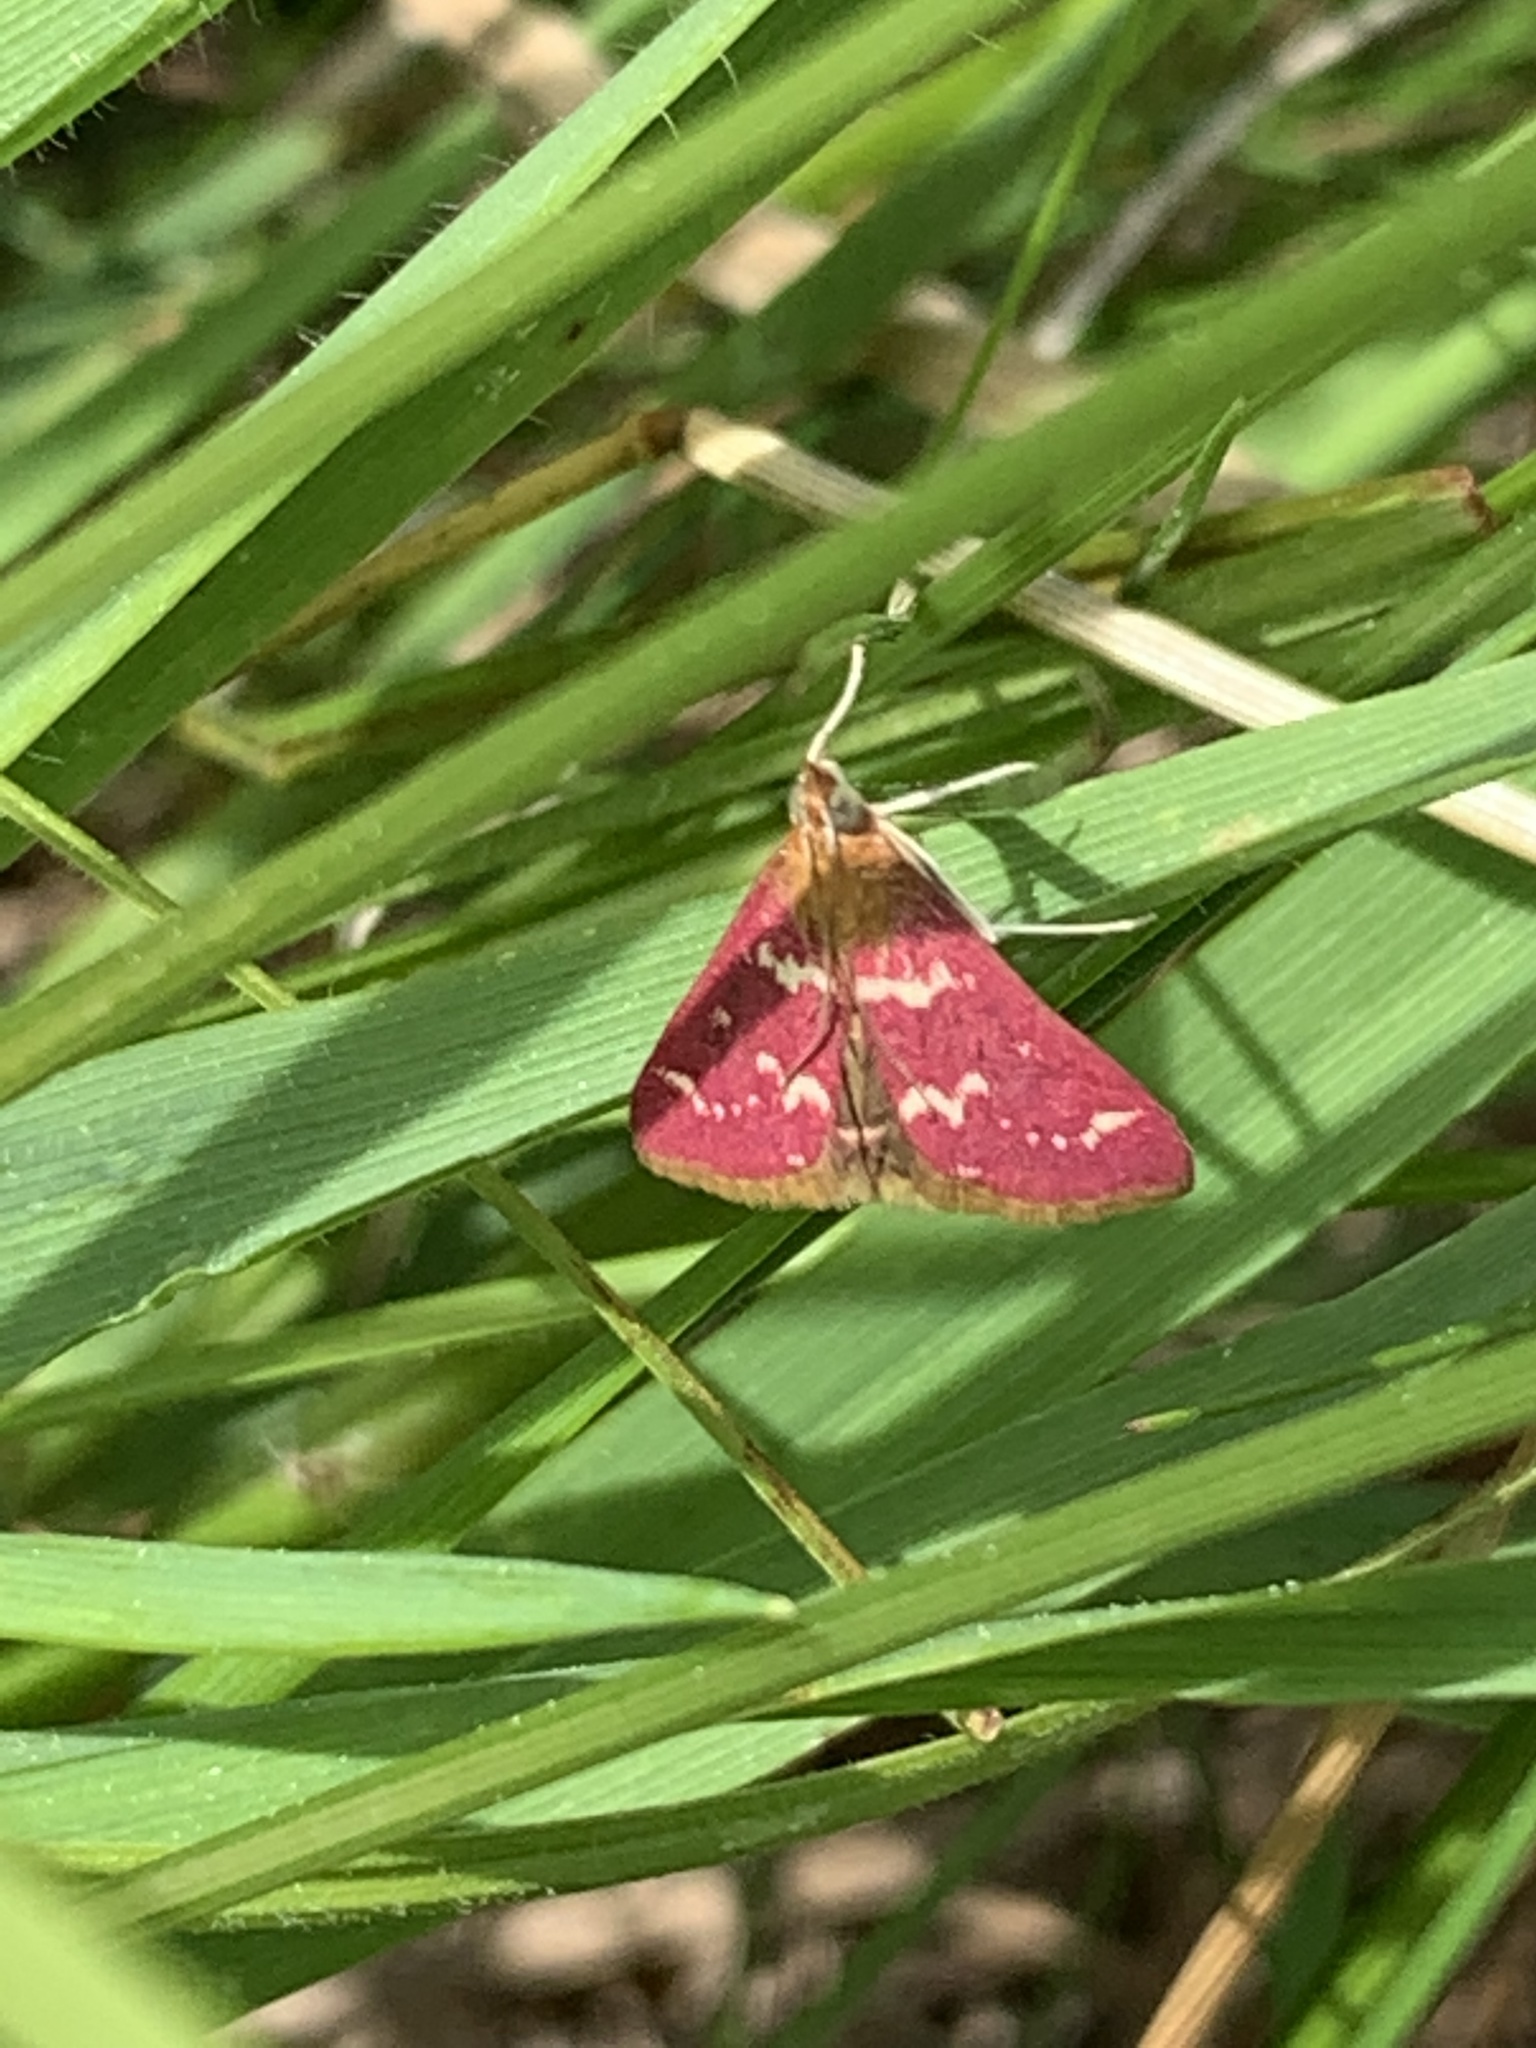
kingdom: Animalia
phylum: Arthropoda
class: Insecta
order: Lepidoptera
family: Crambidae
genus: Pyrausta
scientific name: Pyrausta signatalis
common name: Raspberry pyrausta moth
